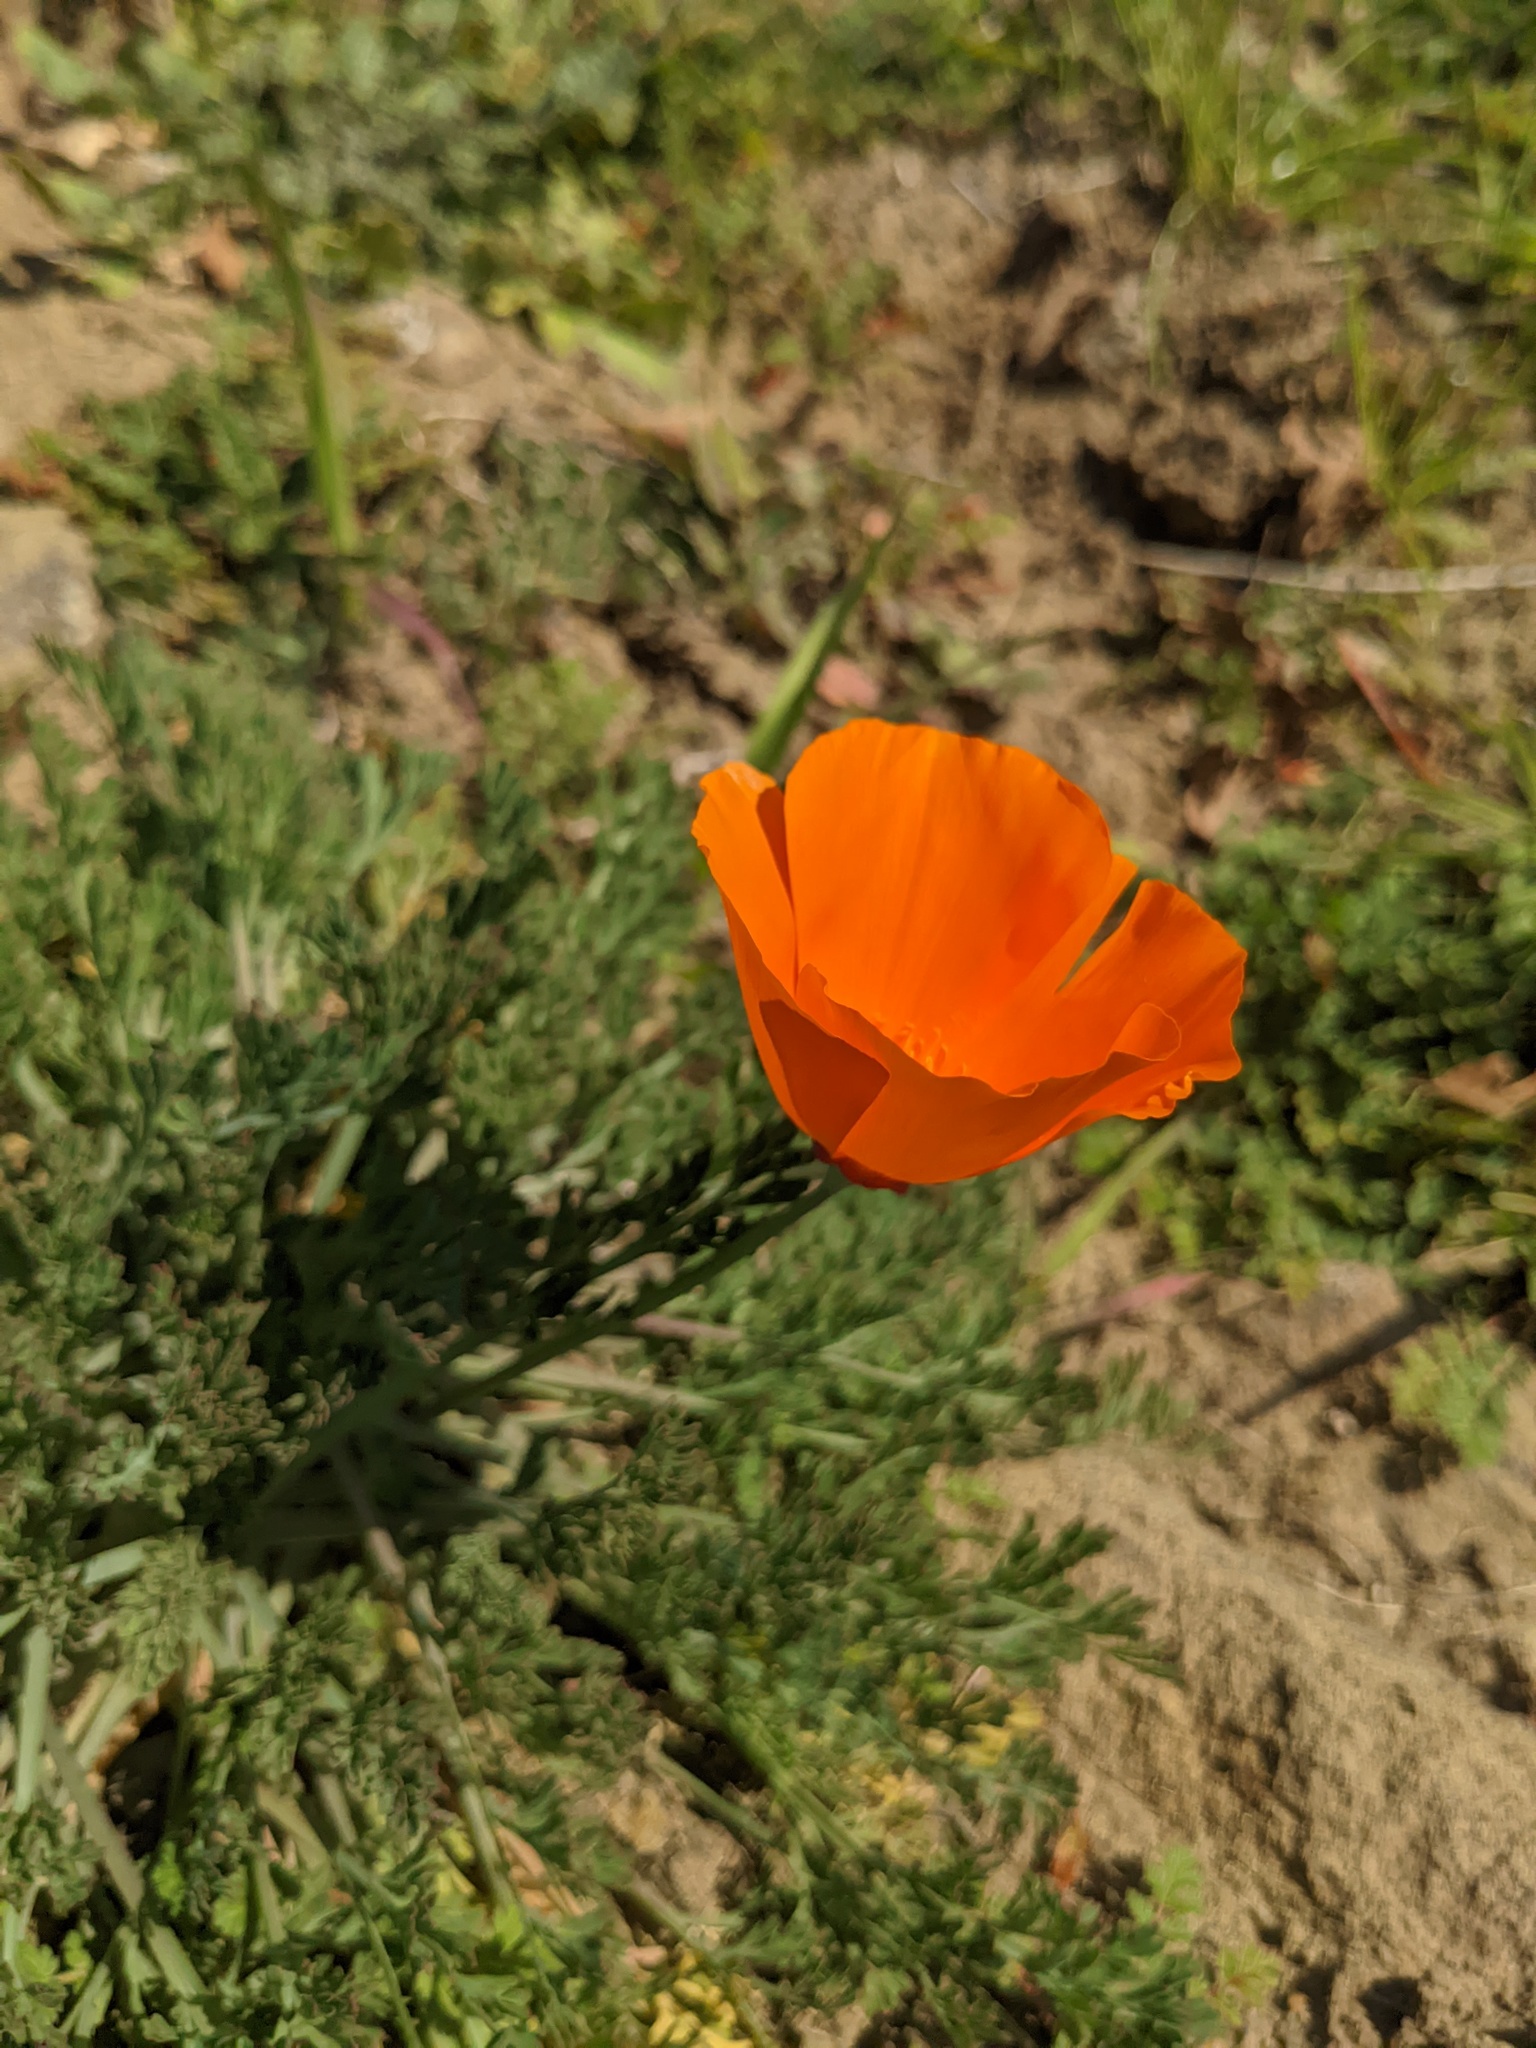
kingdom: Plantae
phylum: Tracheophyta
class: Magnoliopsida
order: Ranunculales
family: Papaveraceae
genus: Eschscholzia
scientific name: Eschscholzia californica
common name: California poppy
